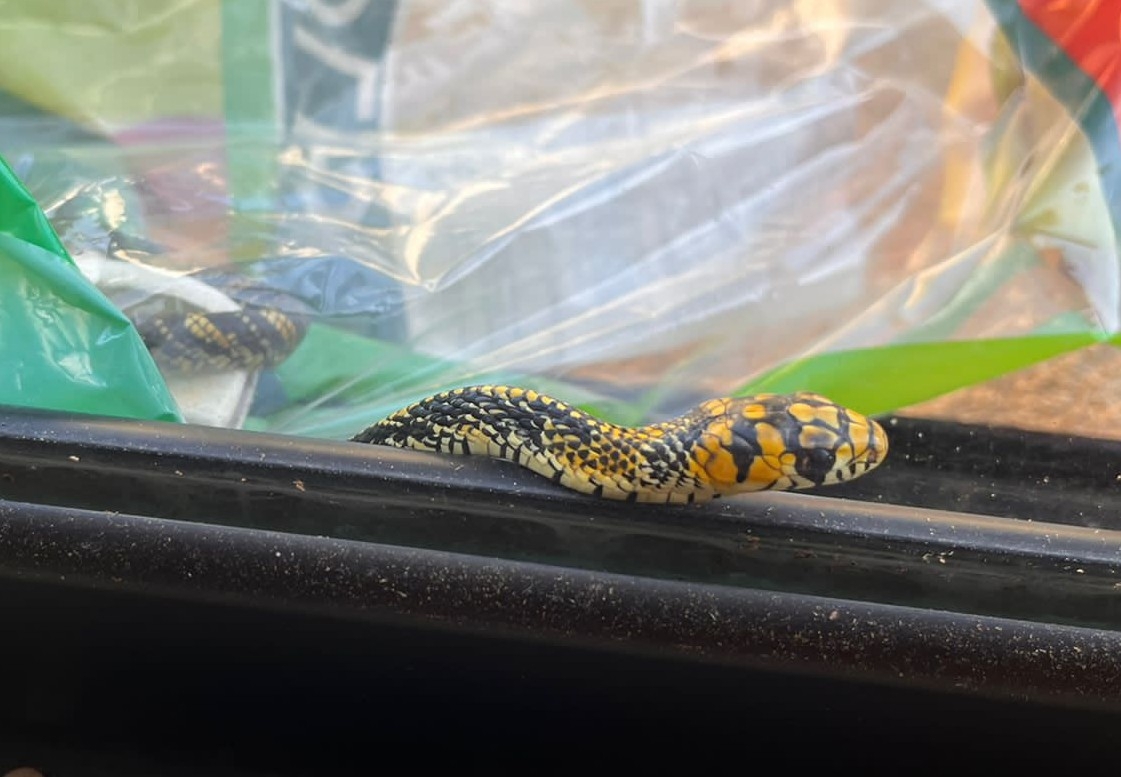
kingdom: Animalia
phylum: Chordata
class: Squamata
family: Colubridae
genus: Spilotes
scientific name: Spilotes pullatus
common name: Chicken snake
